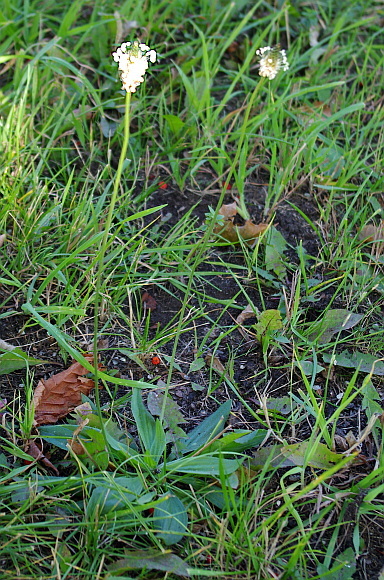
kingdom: Plantae
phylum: Tracheophyta
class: Magnoliopsida
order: Lamiales
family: Plantaginaceae
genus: Plantago
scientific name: Plantago lanceolata
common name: Ribwort plantain
